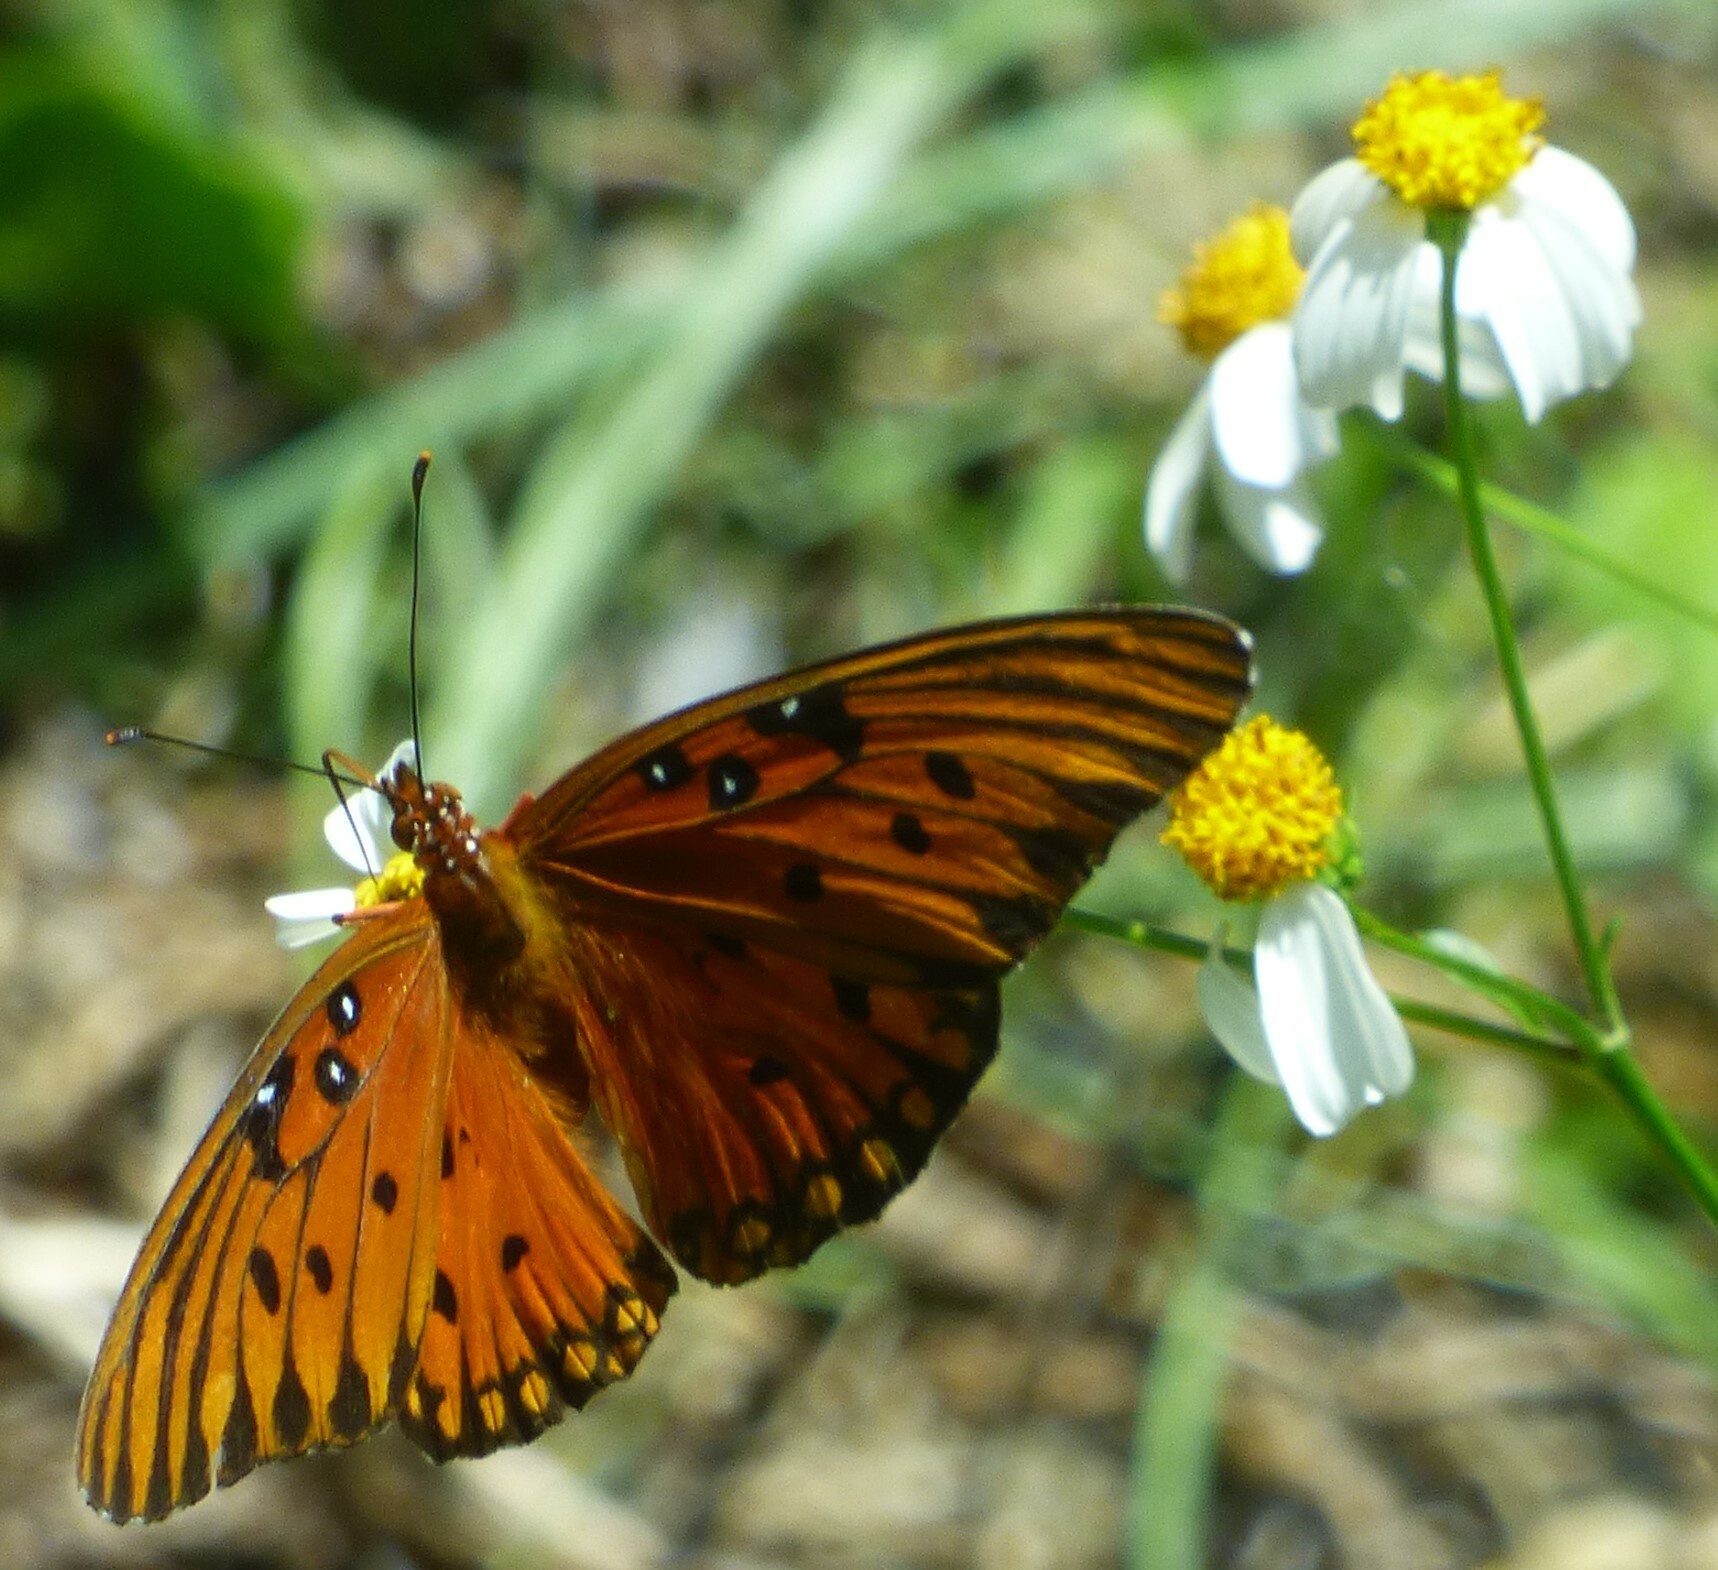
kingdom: Animalia
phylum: Arthropoda
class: Insecta
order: Lepidoptera
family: Nymphalidae
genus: Dione
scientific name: Dione vanillae
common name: Gulf fritillary
